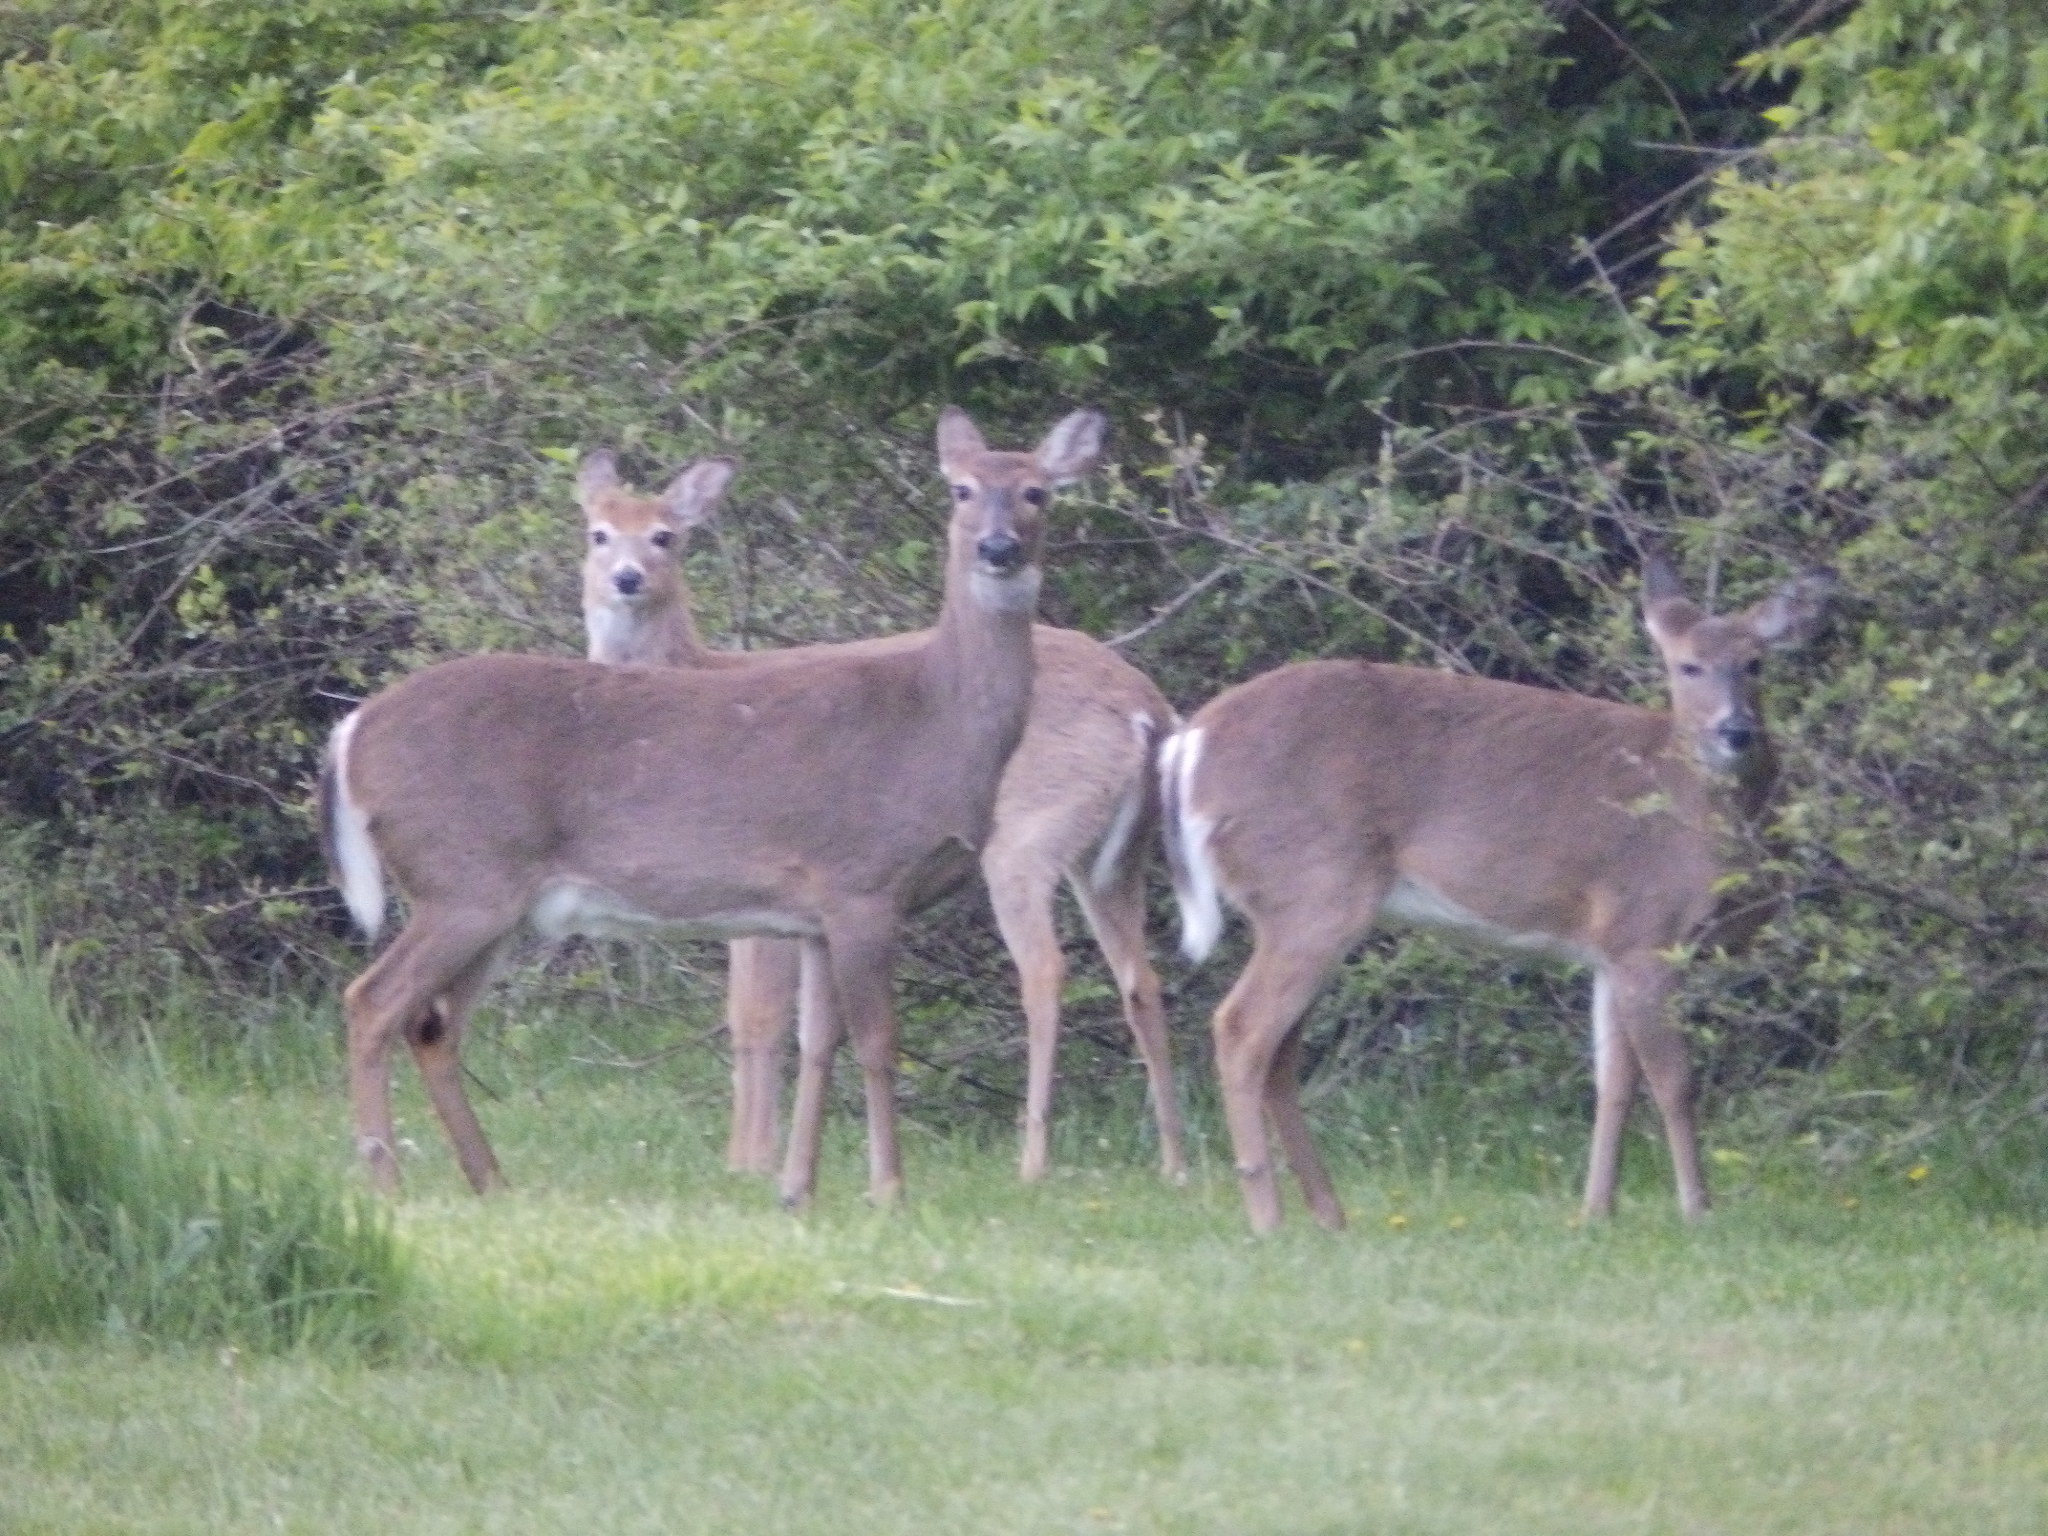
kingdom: Animalia
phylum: Chordata
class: Mammalia
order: Artiodactyla
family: Cervidae
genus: Odocoileus
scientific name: Odocoileus virginianus
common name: White-tailed deer
